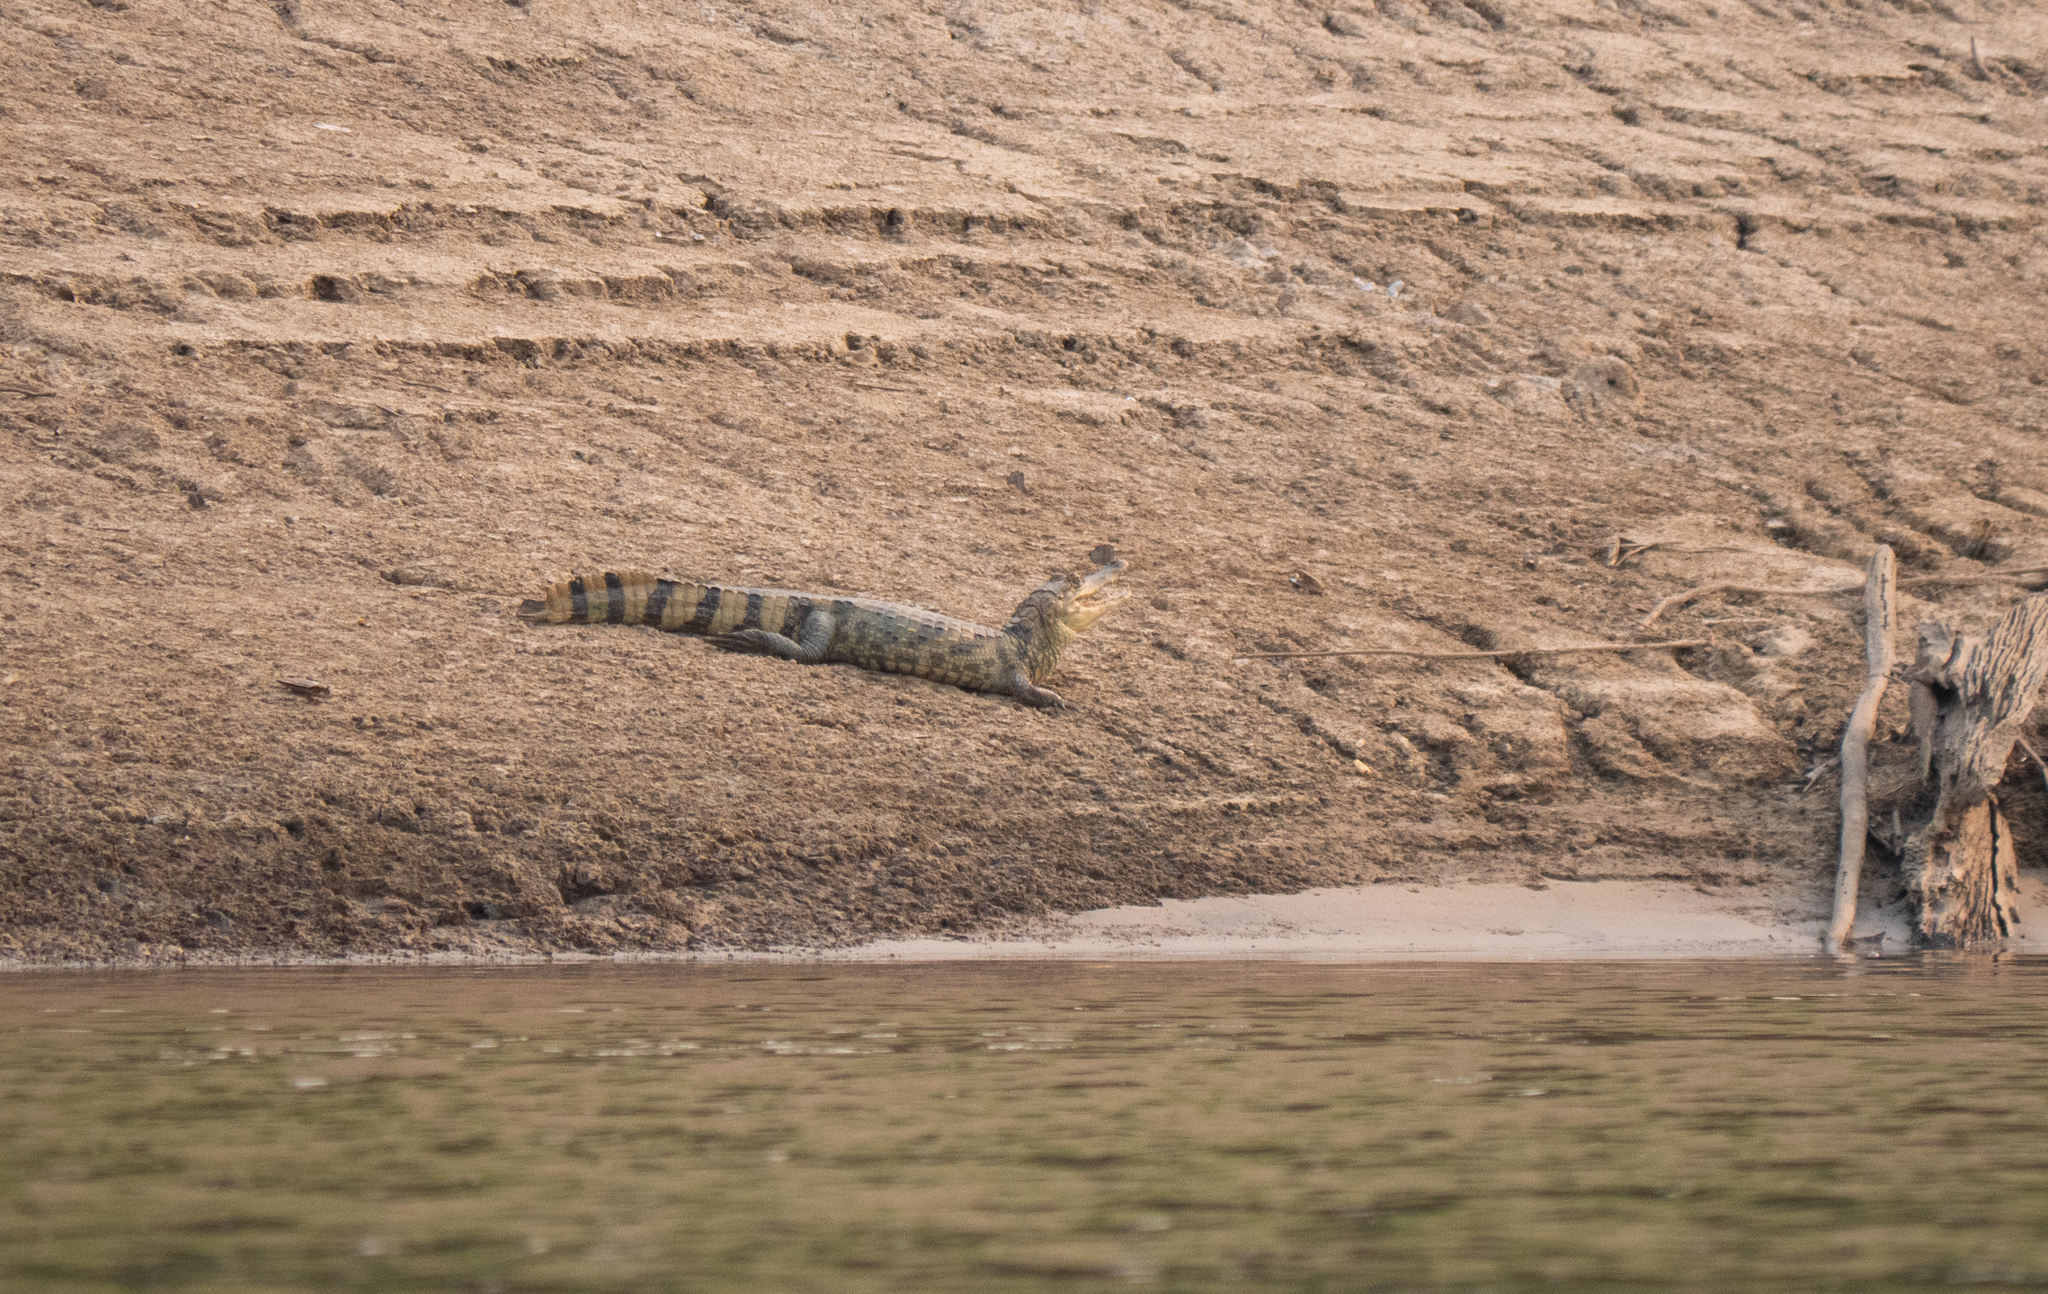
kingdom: Animalia
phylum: Chordata
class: Crocodylia
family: Alligatoridae
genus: Caiman
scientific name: Caiman crocodilus
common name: Common caiman
